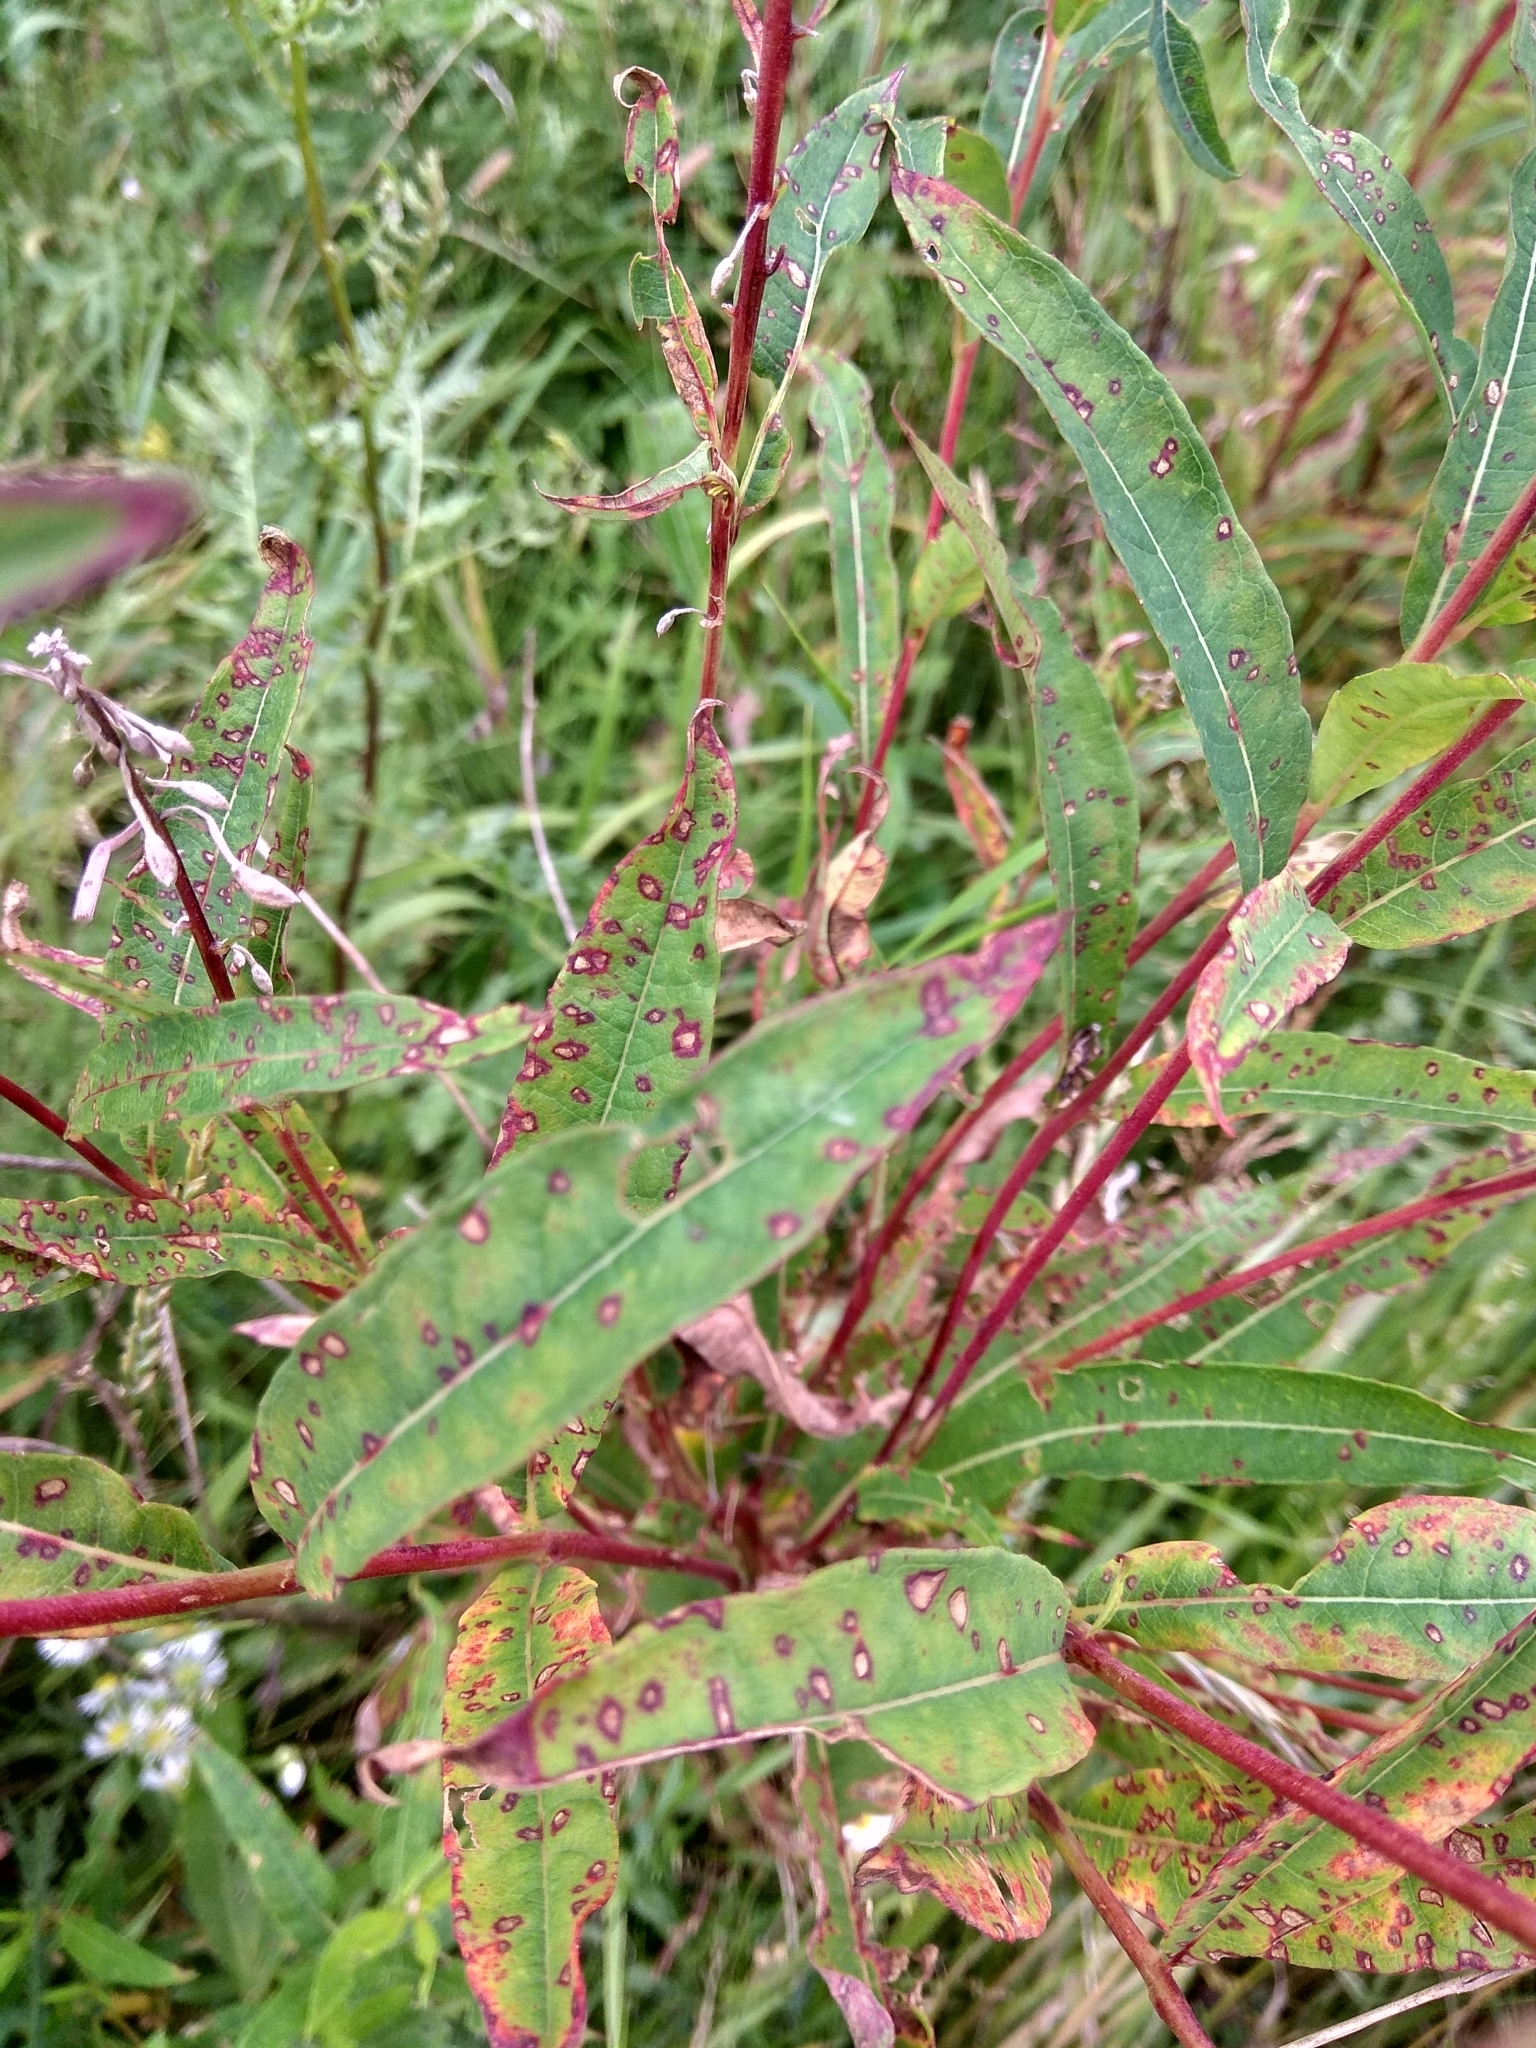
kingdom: Plantae
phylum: Tracheophyta
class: Magnoliopsida
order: Myrtales
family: Onagraceae
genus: Chamaenerion
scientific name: Chamaenerion angustifolium
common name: Fireweed
